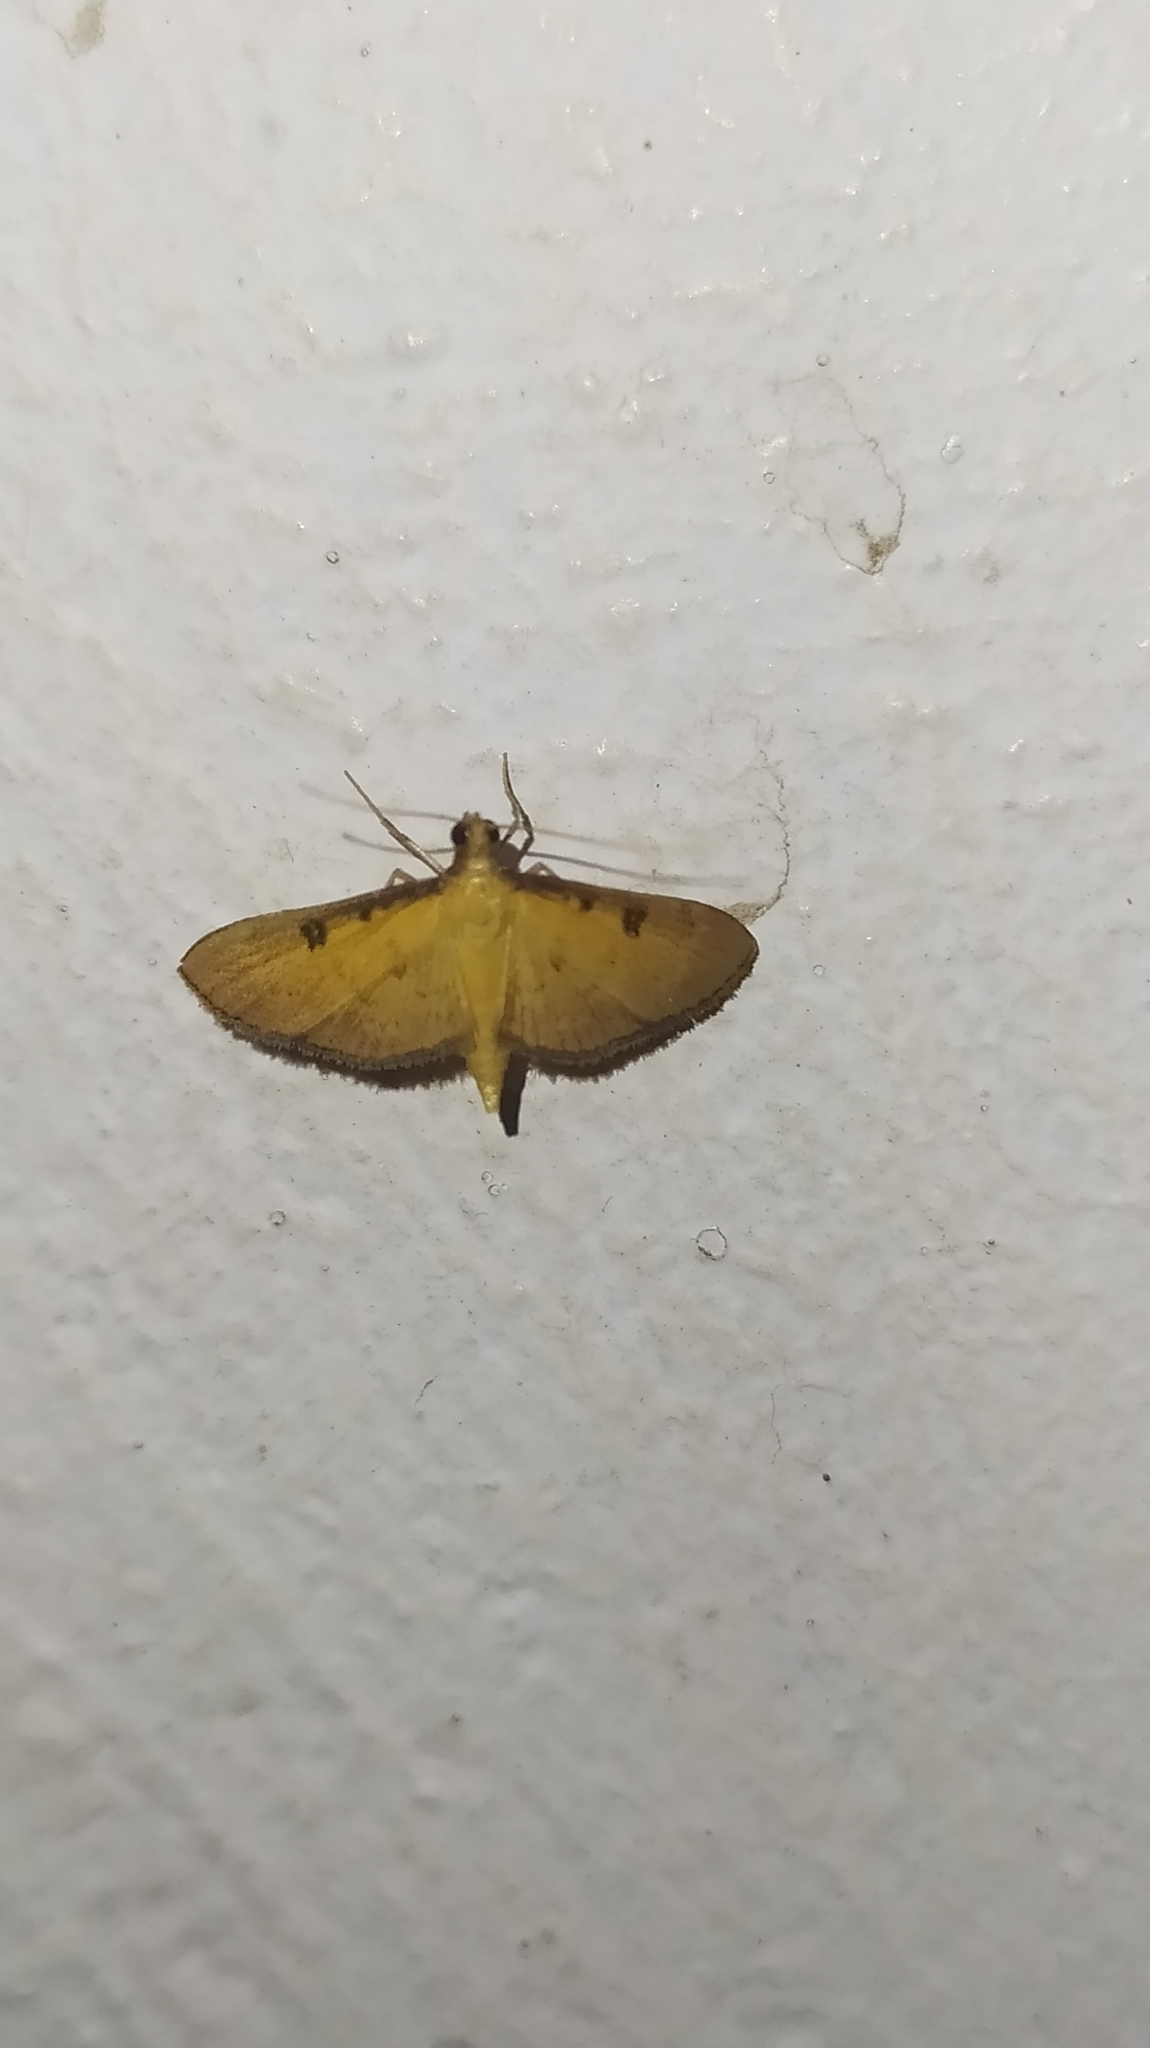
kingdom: Animalia
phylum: Arthropoda
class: Insecta
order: Lepidoptera
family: Crambidae
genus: Tatobotys
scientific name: Tatobotys biannulalis
